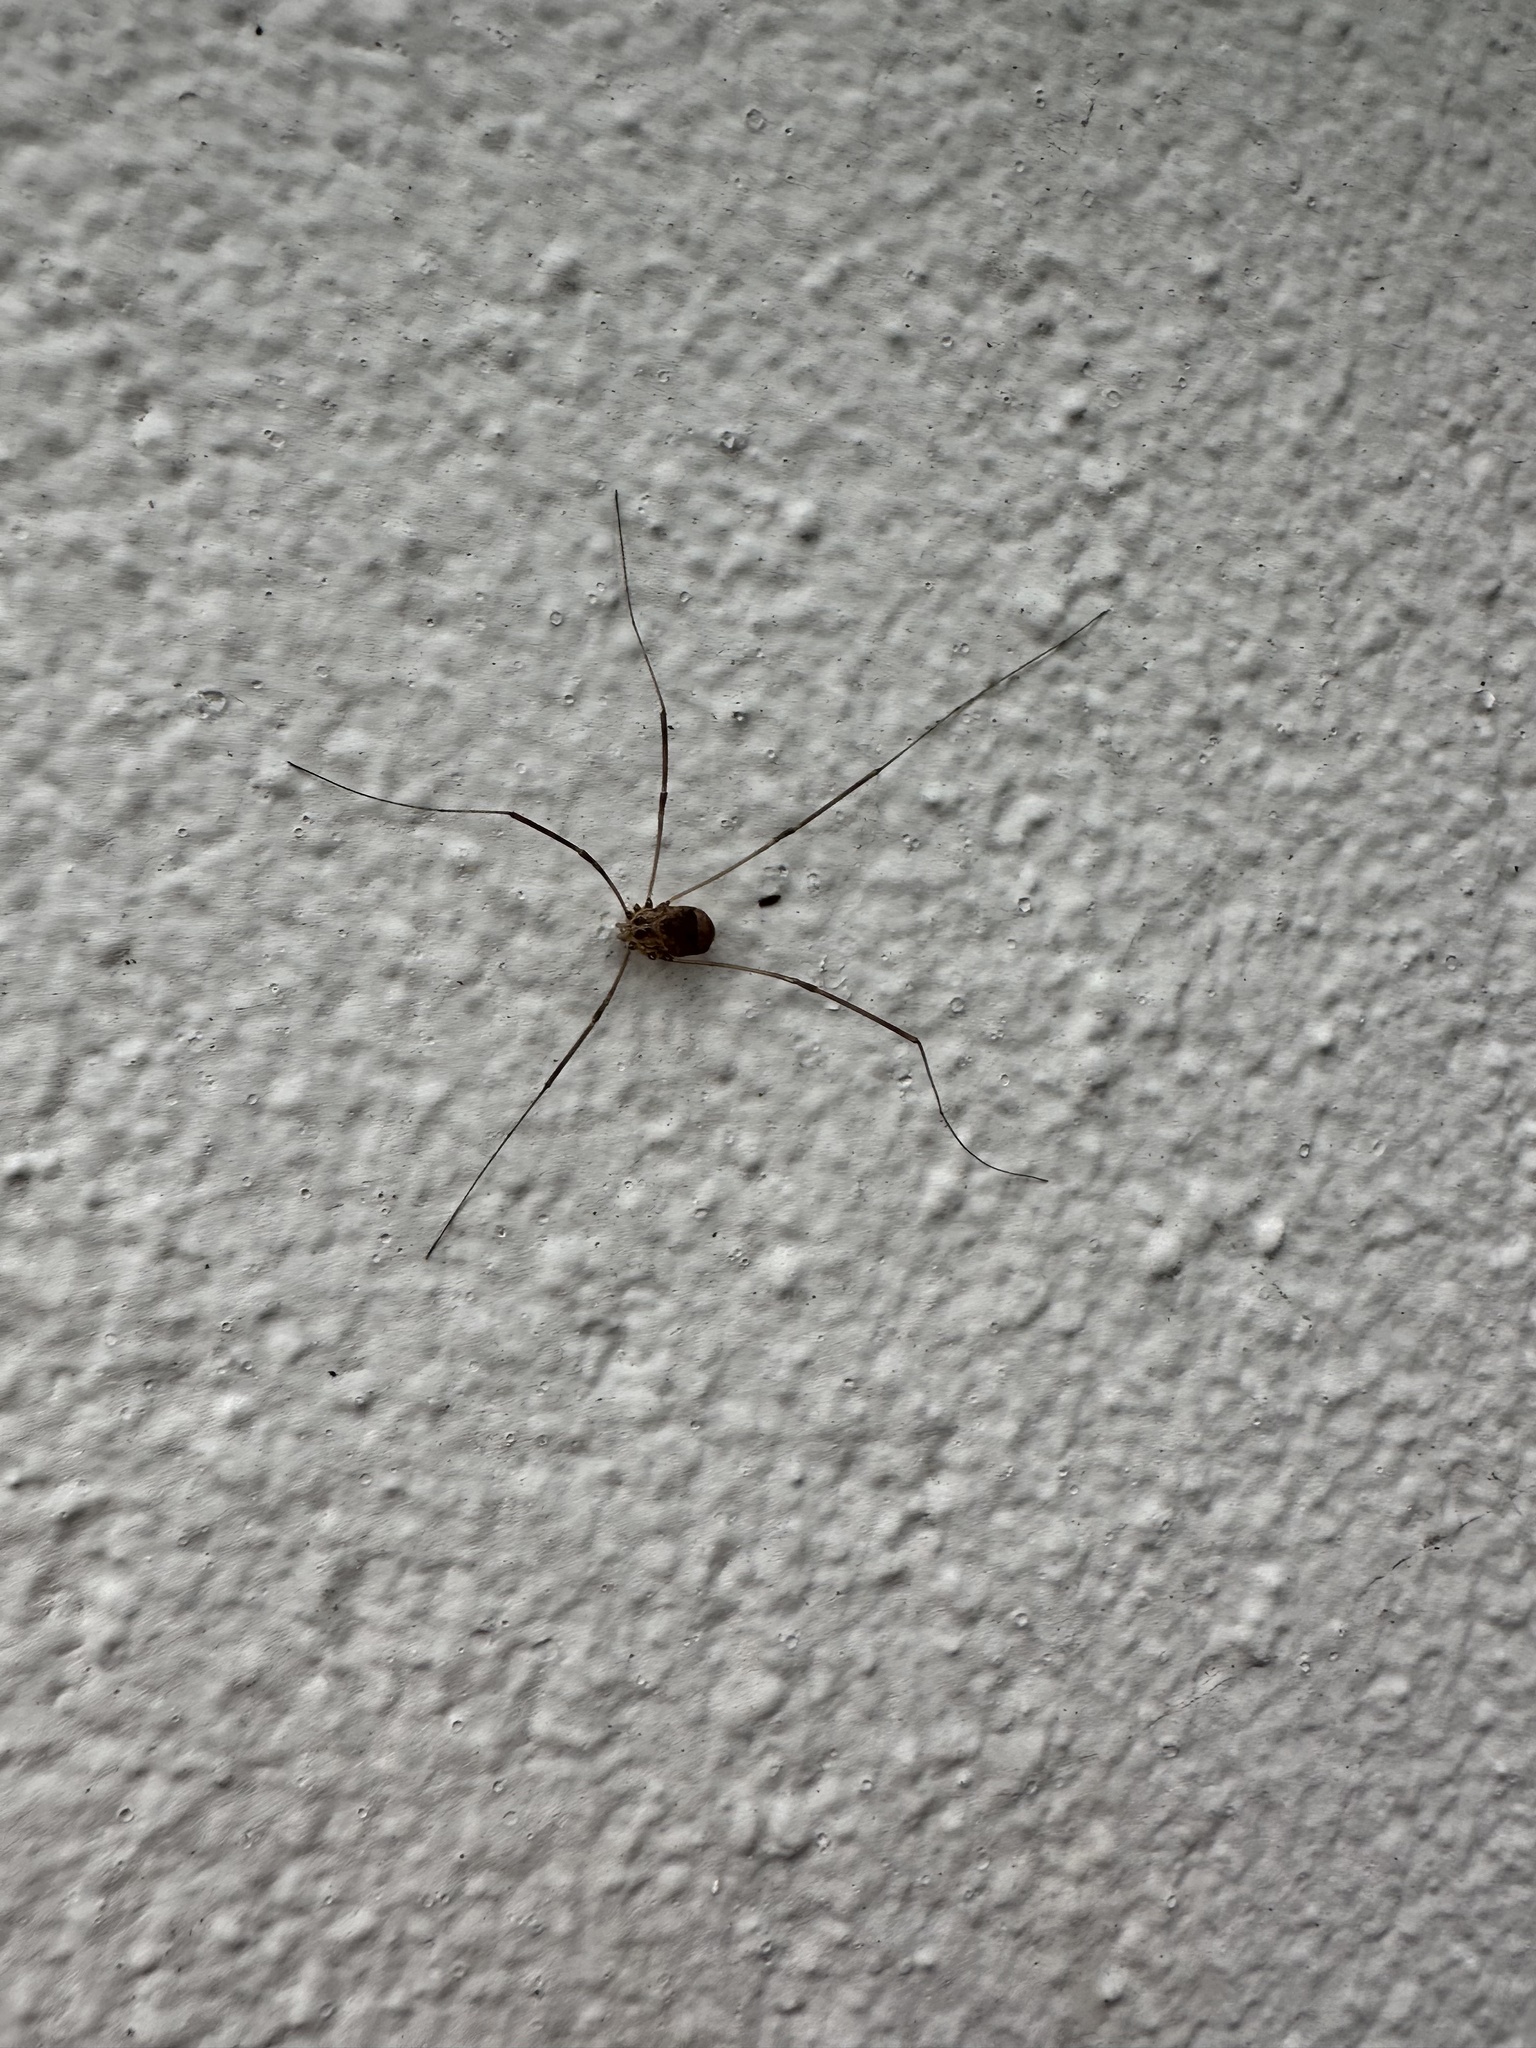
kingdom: Animalia
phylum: Arthropoda
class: Arachnida
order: Opiliones
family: Sclerosomatidae
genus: Leiobunum
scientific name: Leiobunum blackwalli
